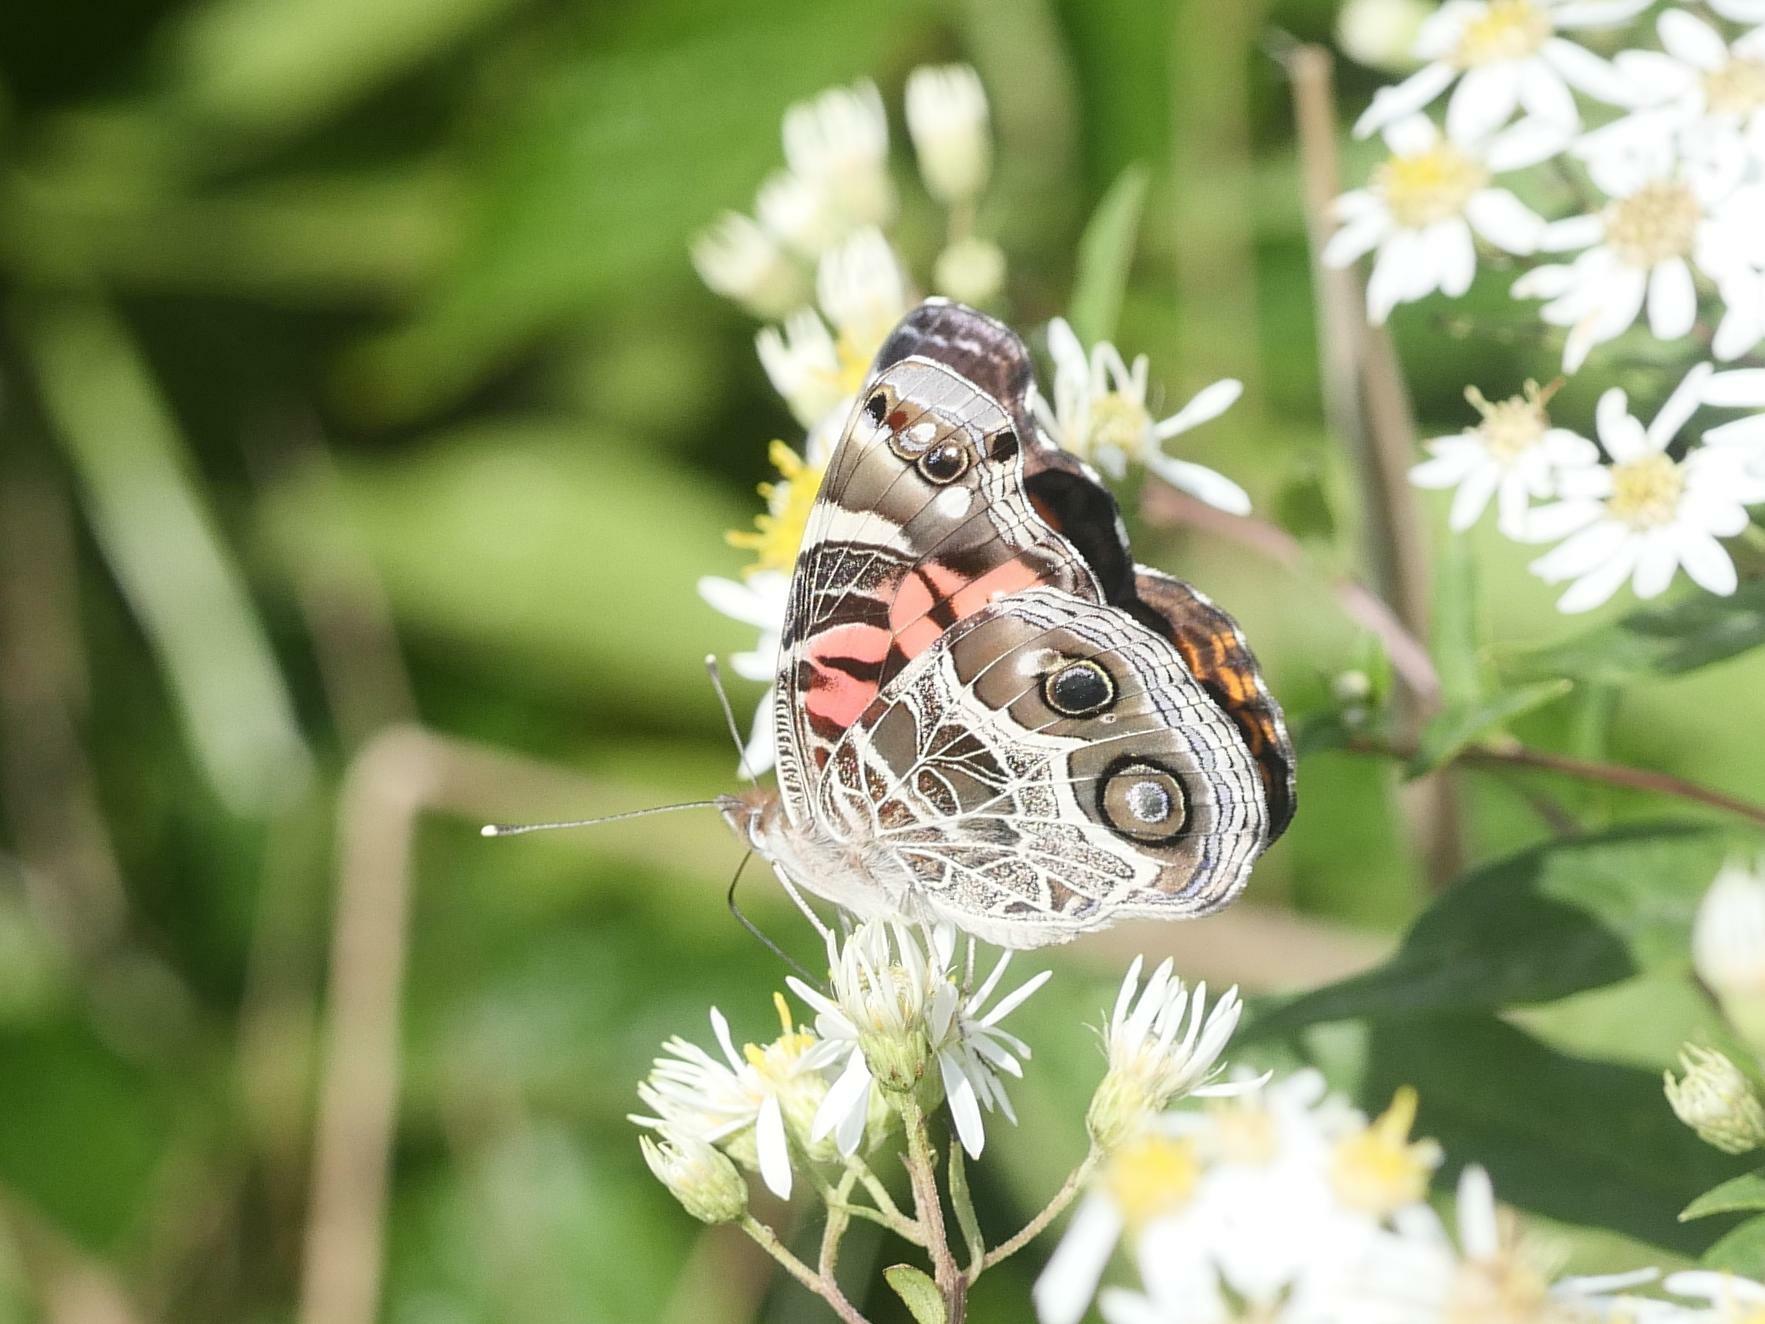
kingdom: Animalia
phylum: Arthropoda
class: Insecta
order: Lepidoptera
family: Nymphalidae
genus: Vanessa
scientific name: Vanessa virginiensis
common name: American lady
